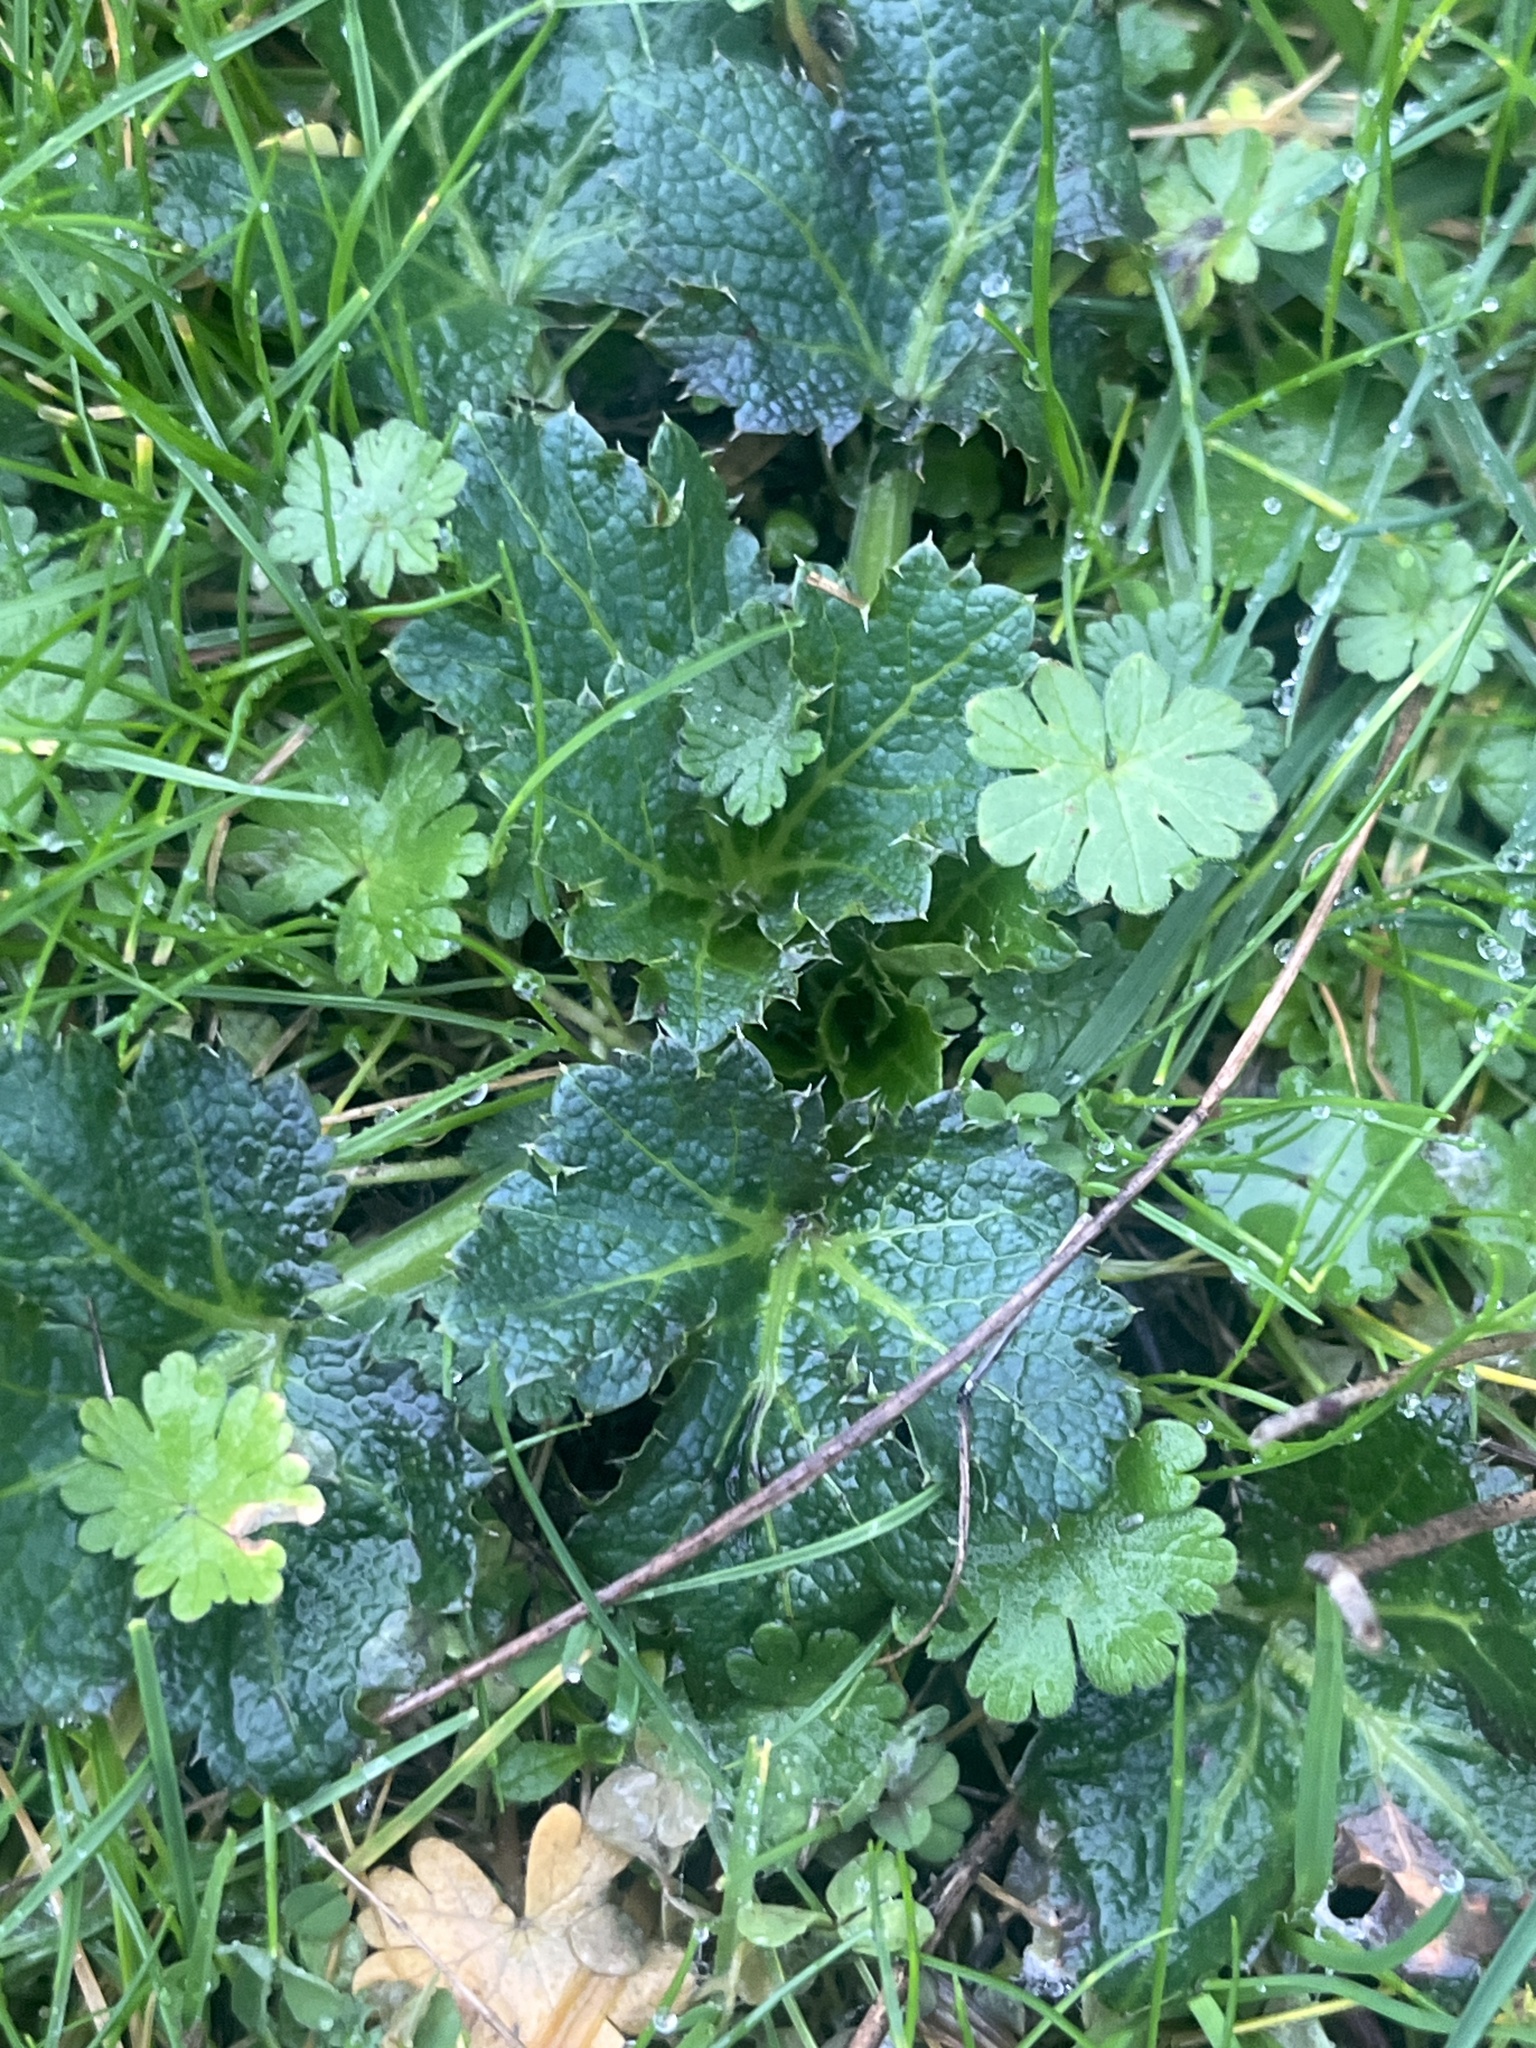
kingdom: Plantae
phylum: Tracheophyta
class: Magnoliopsida
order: Apiales
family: Apiaceae
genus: Sanicula
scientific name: Sanicula crassicaulis
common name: Western snakeroot
